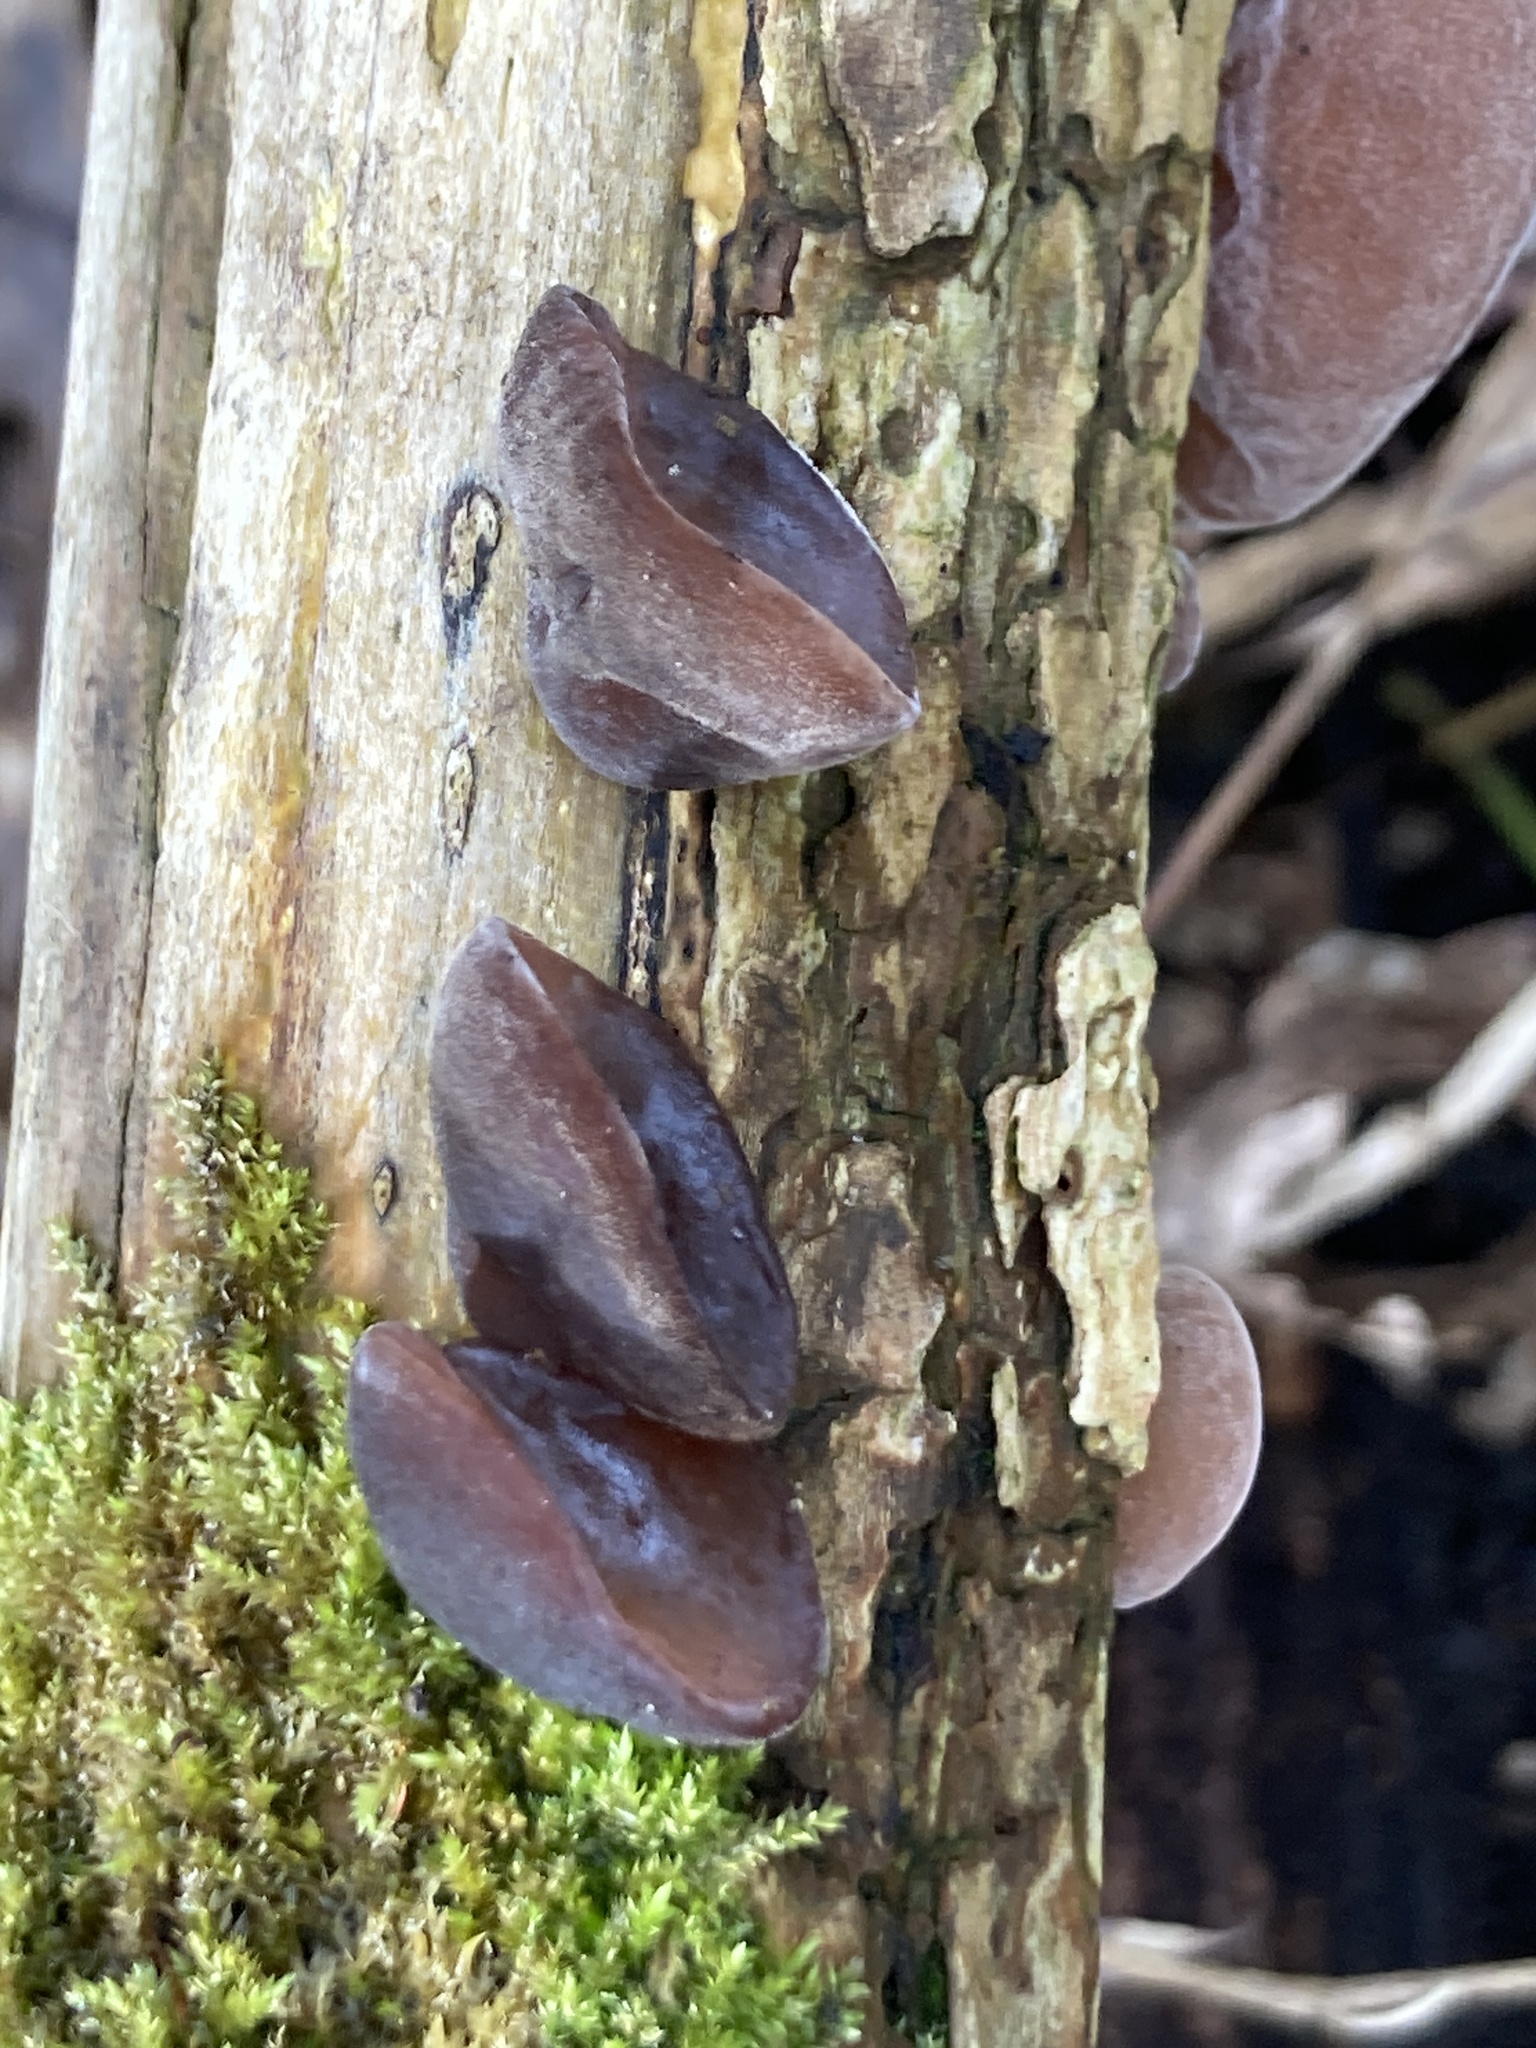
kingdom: Fungi
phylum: Basidiomycota
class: Agaricomycetes
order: Auriculariales
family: Auriculariaceae
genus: Auricularia
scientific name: Auricularia auricula-judae
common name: Jelly ear
